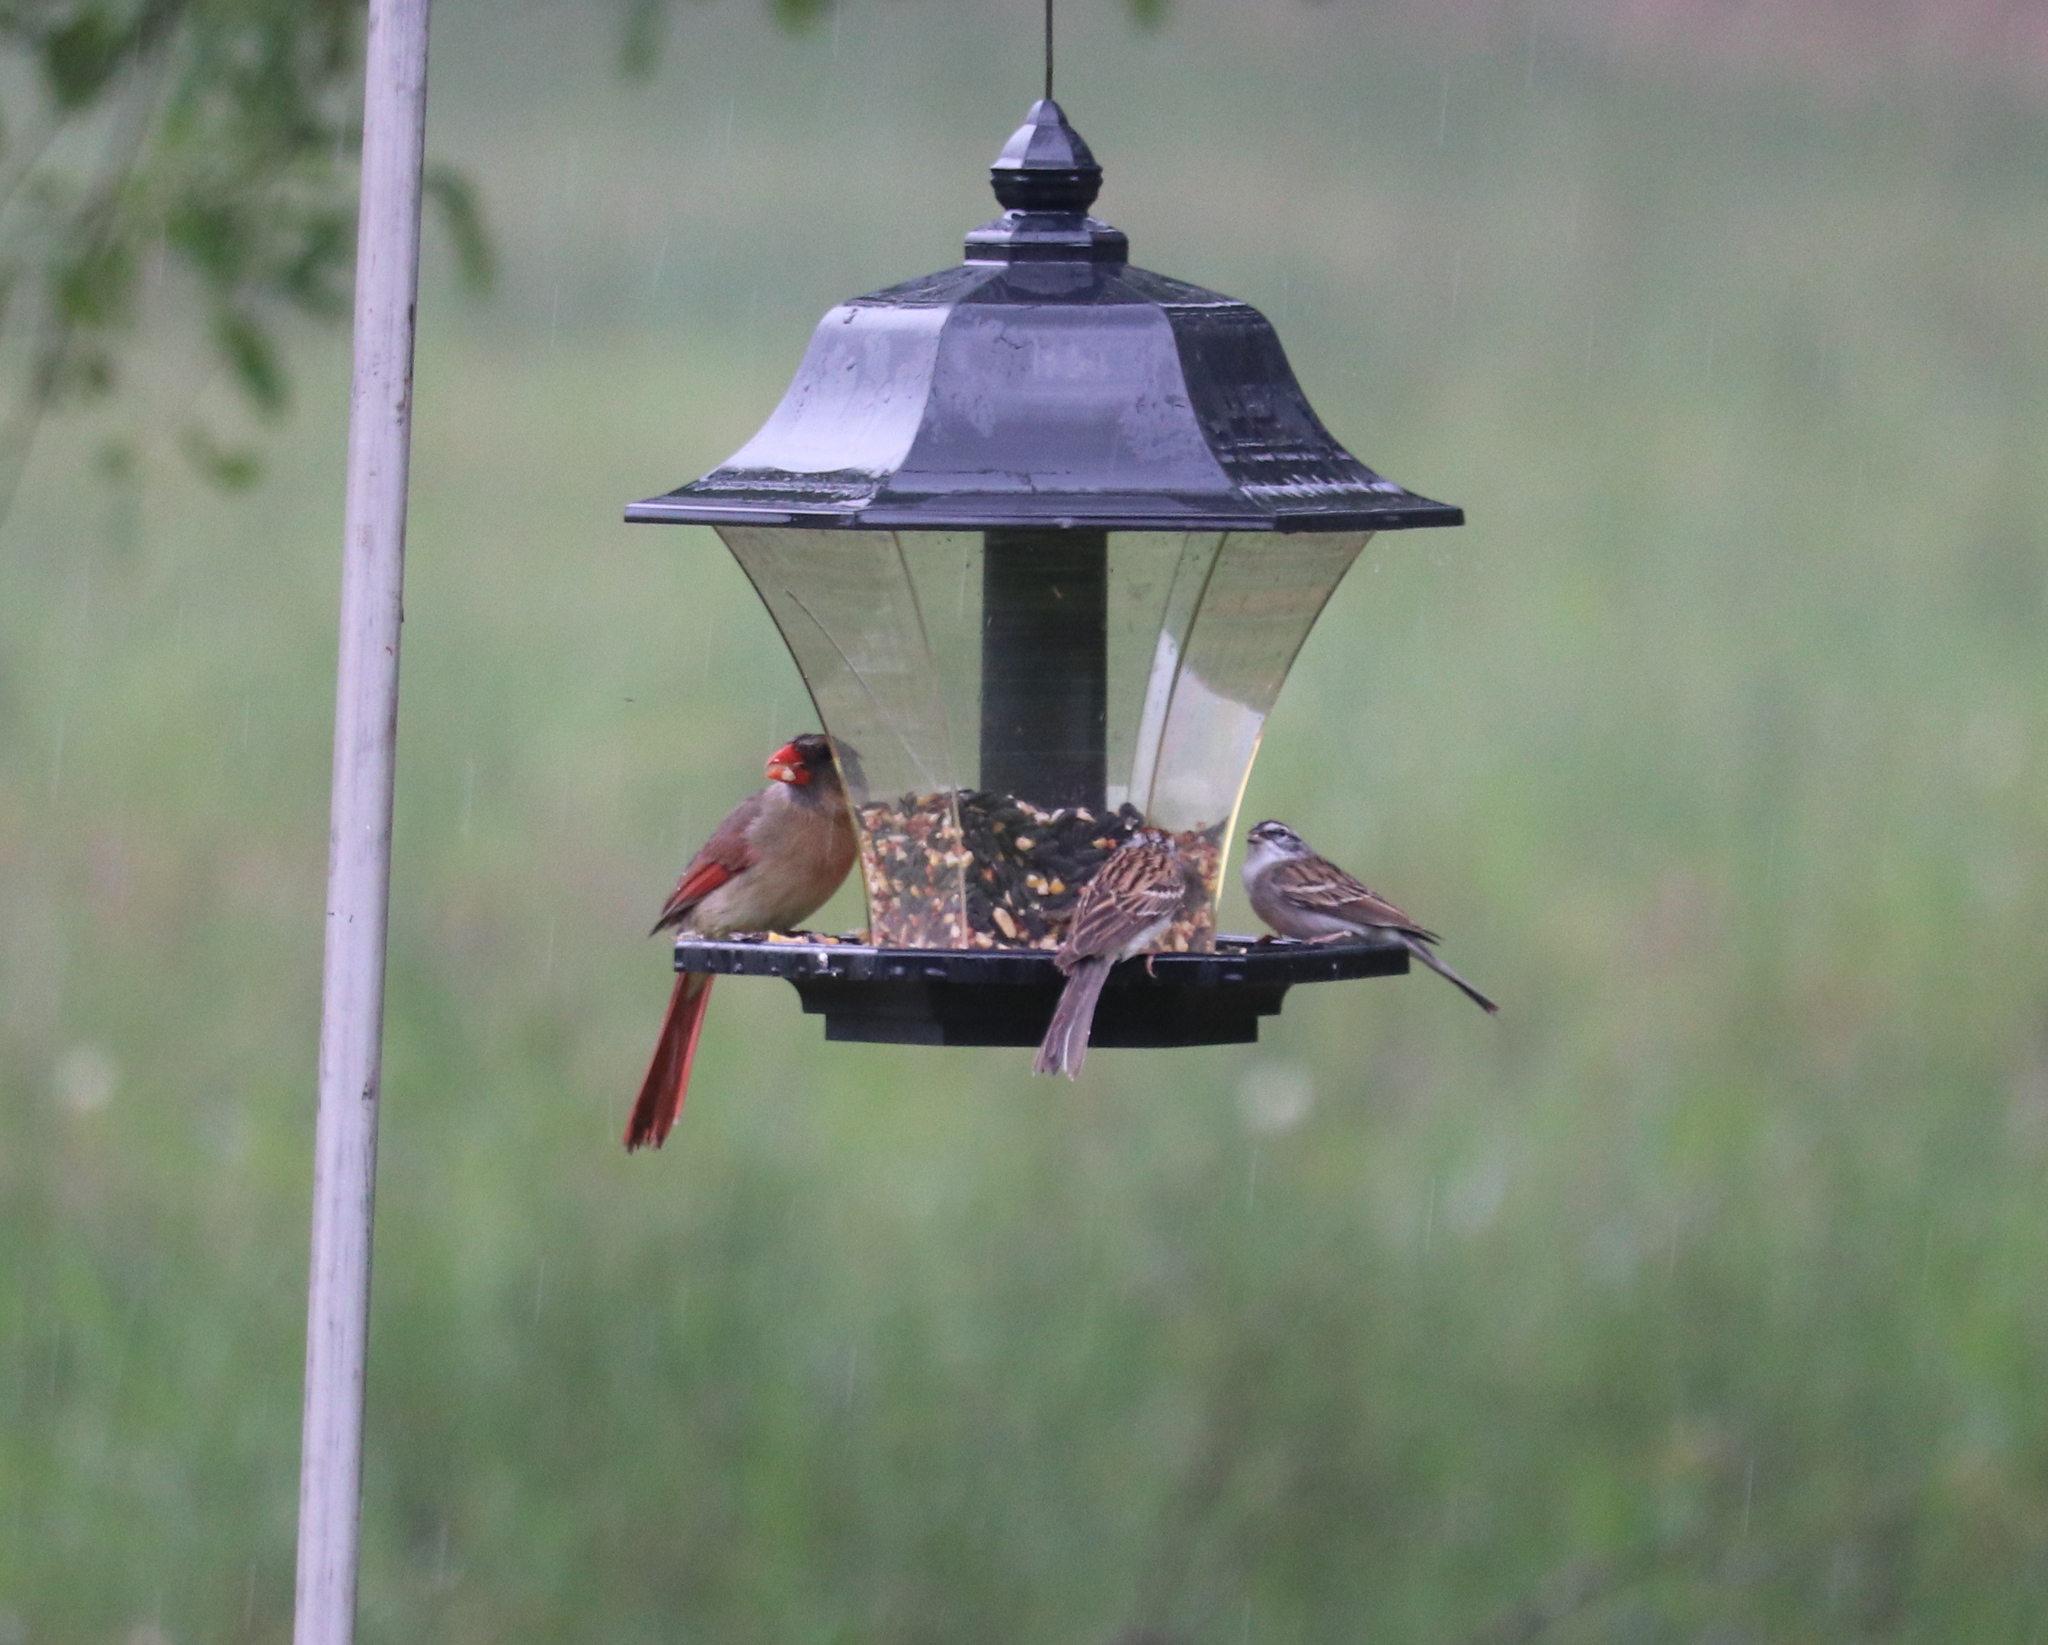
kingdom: Animalia
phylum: Chordata
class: Aves
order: Passeriformes
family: Cardinalidae
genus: Cardinalis
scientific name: Cardinalis cardinalis
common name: Northern cardinal
